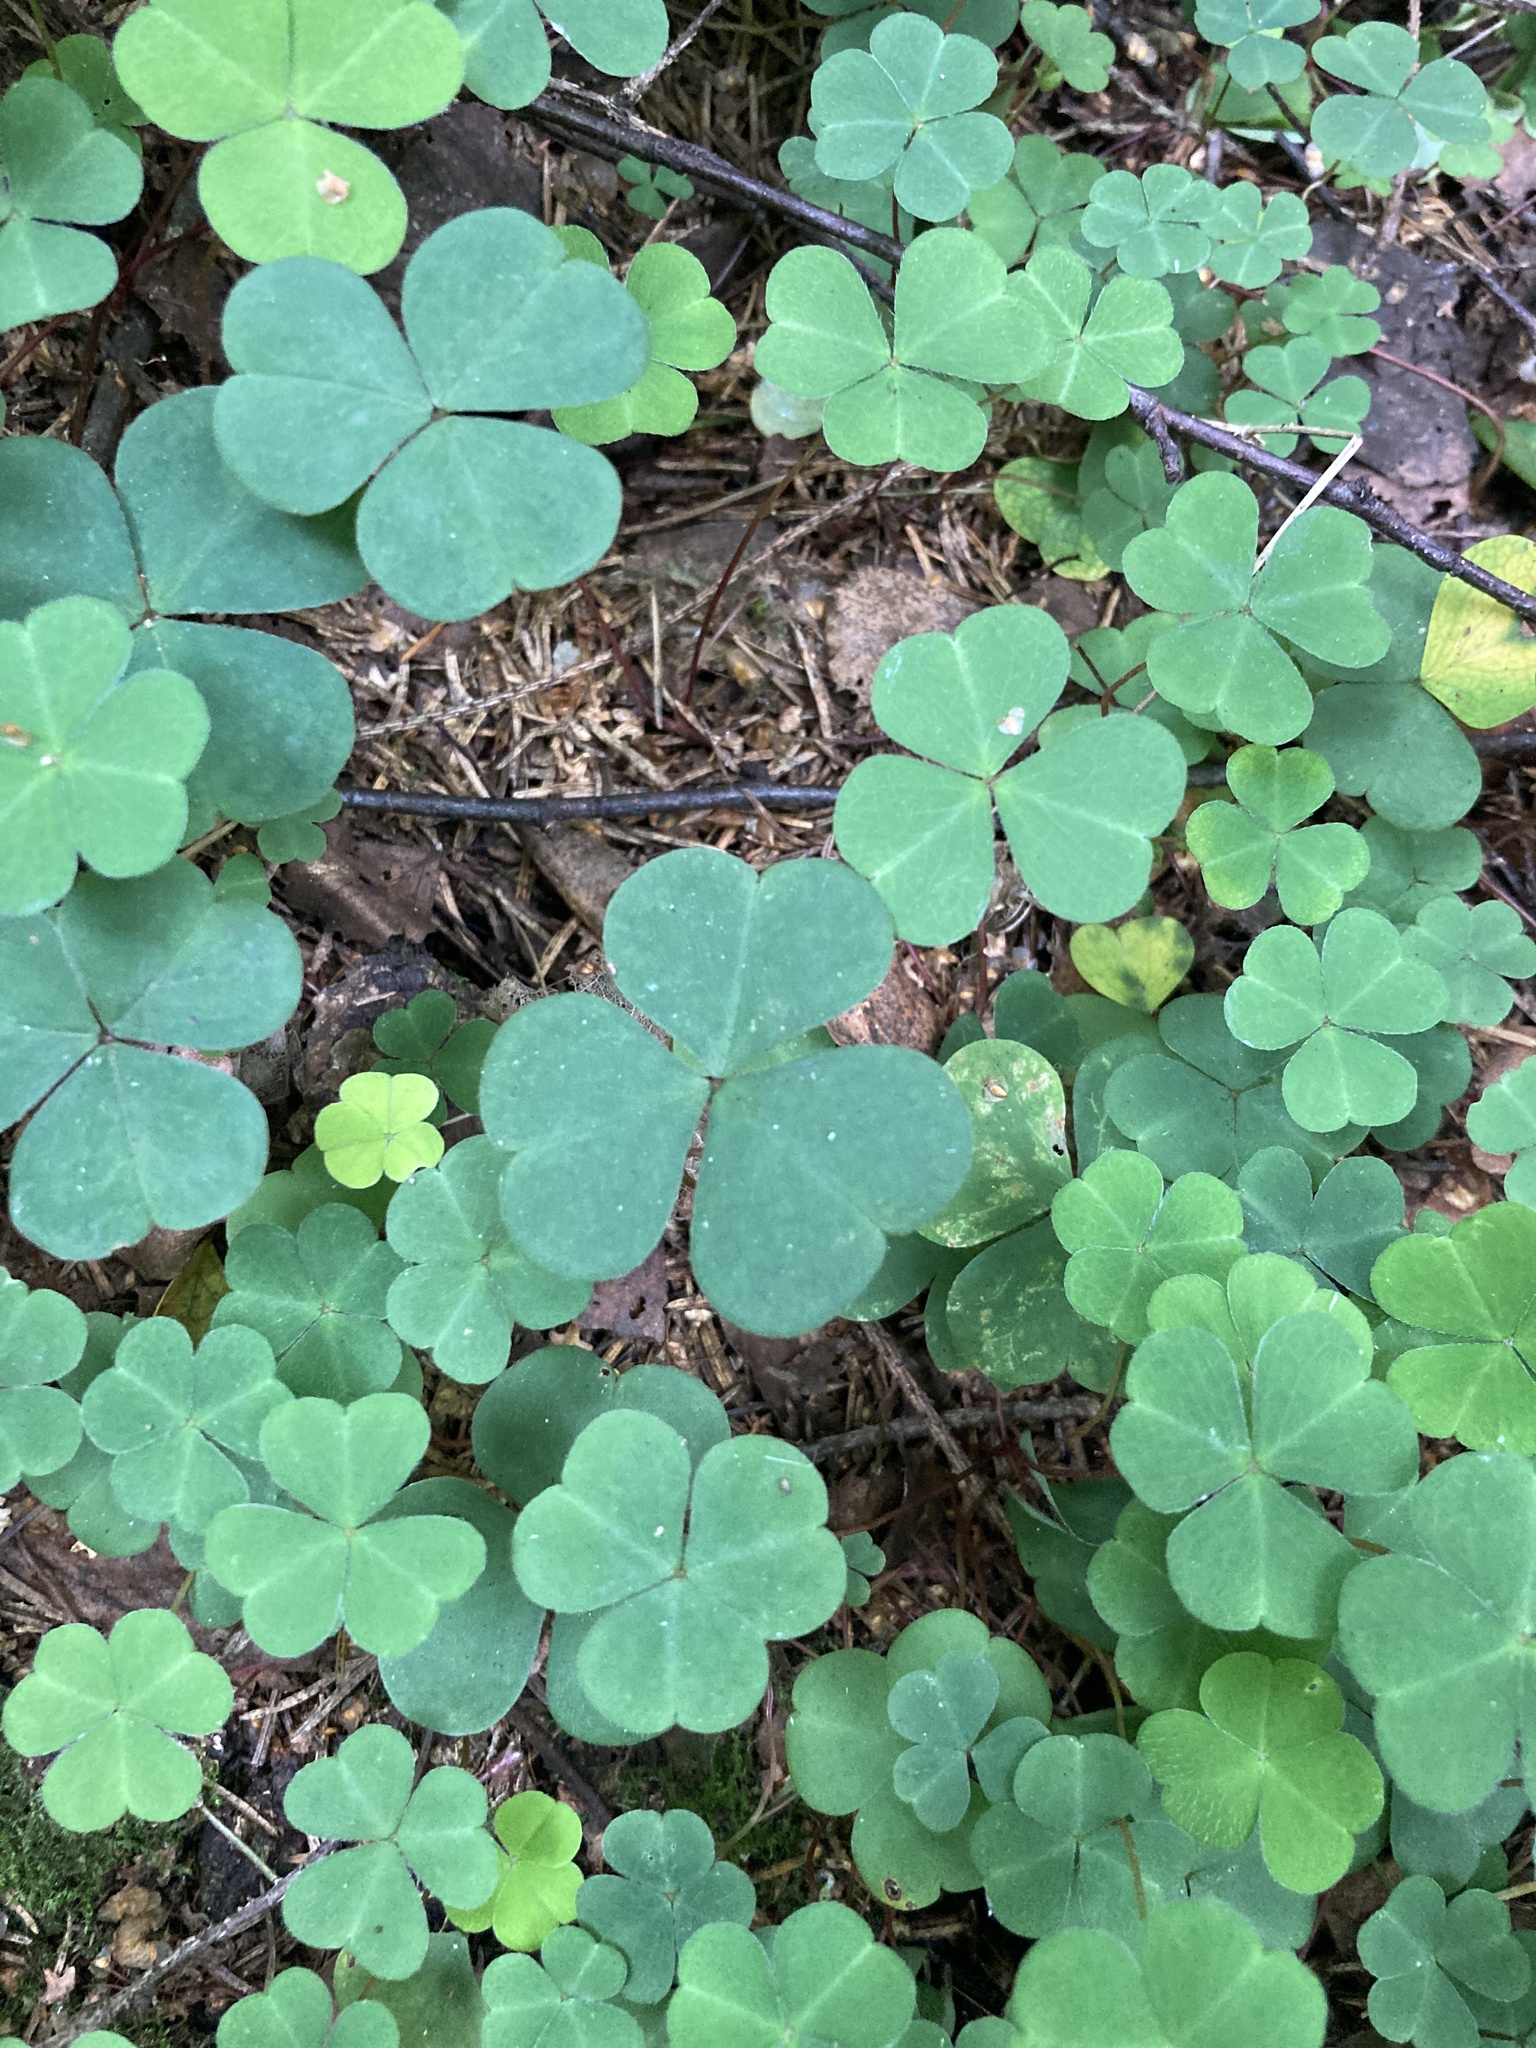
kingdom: Plantae
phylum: Tracheophyta
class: Magnoliopsida
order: Oxalidales
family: Oxalidaceae
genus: Oxalis
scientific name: Oxalis acetosella
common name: Wood-sorrel
